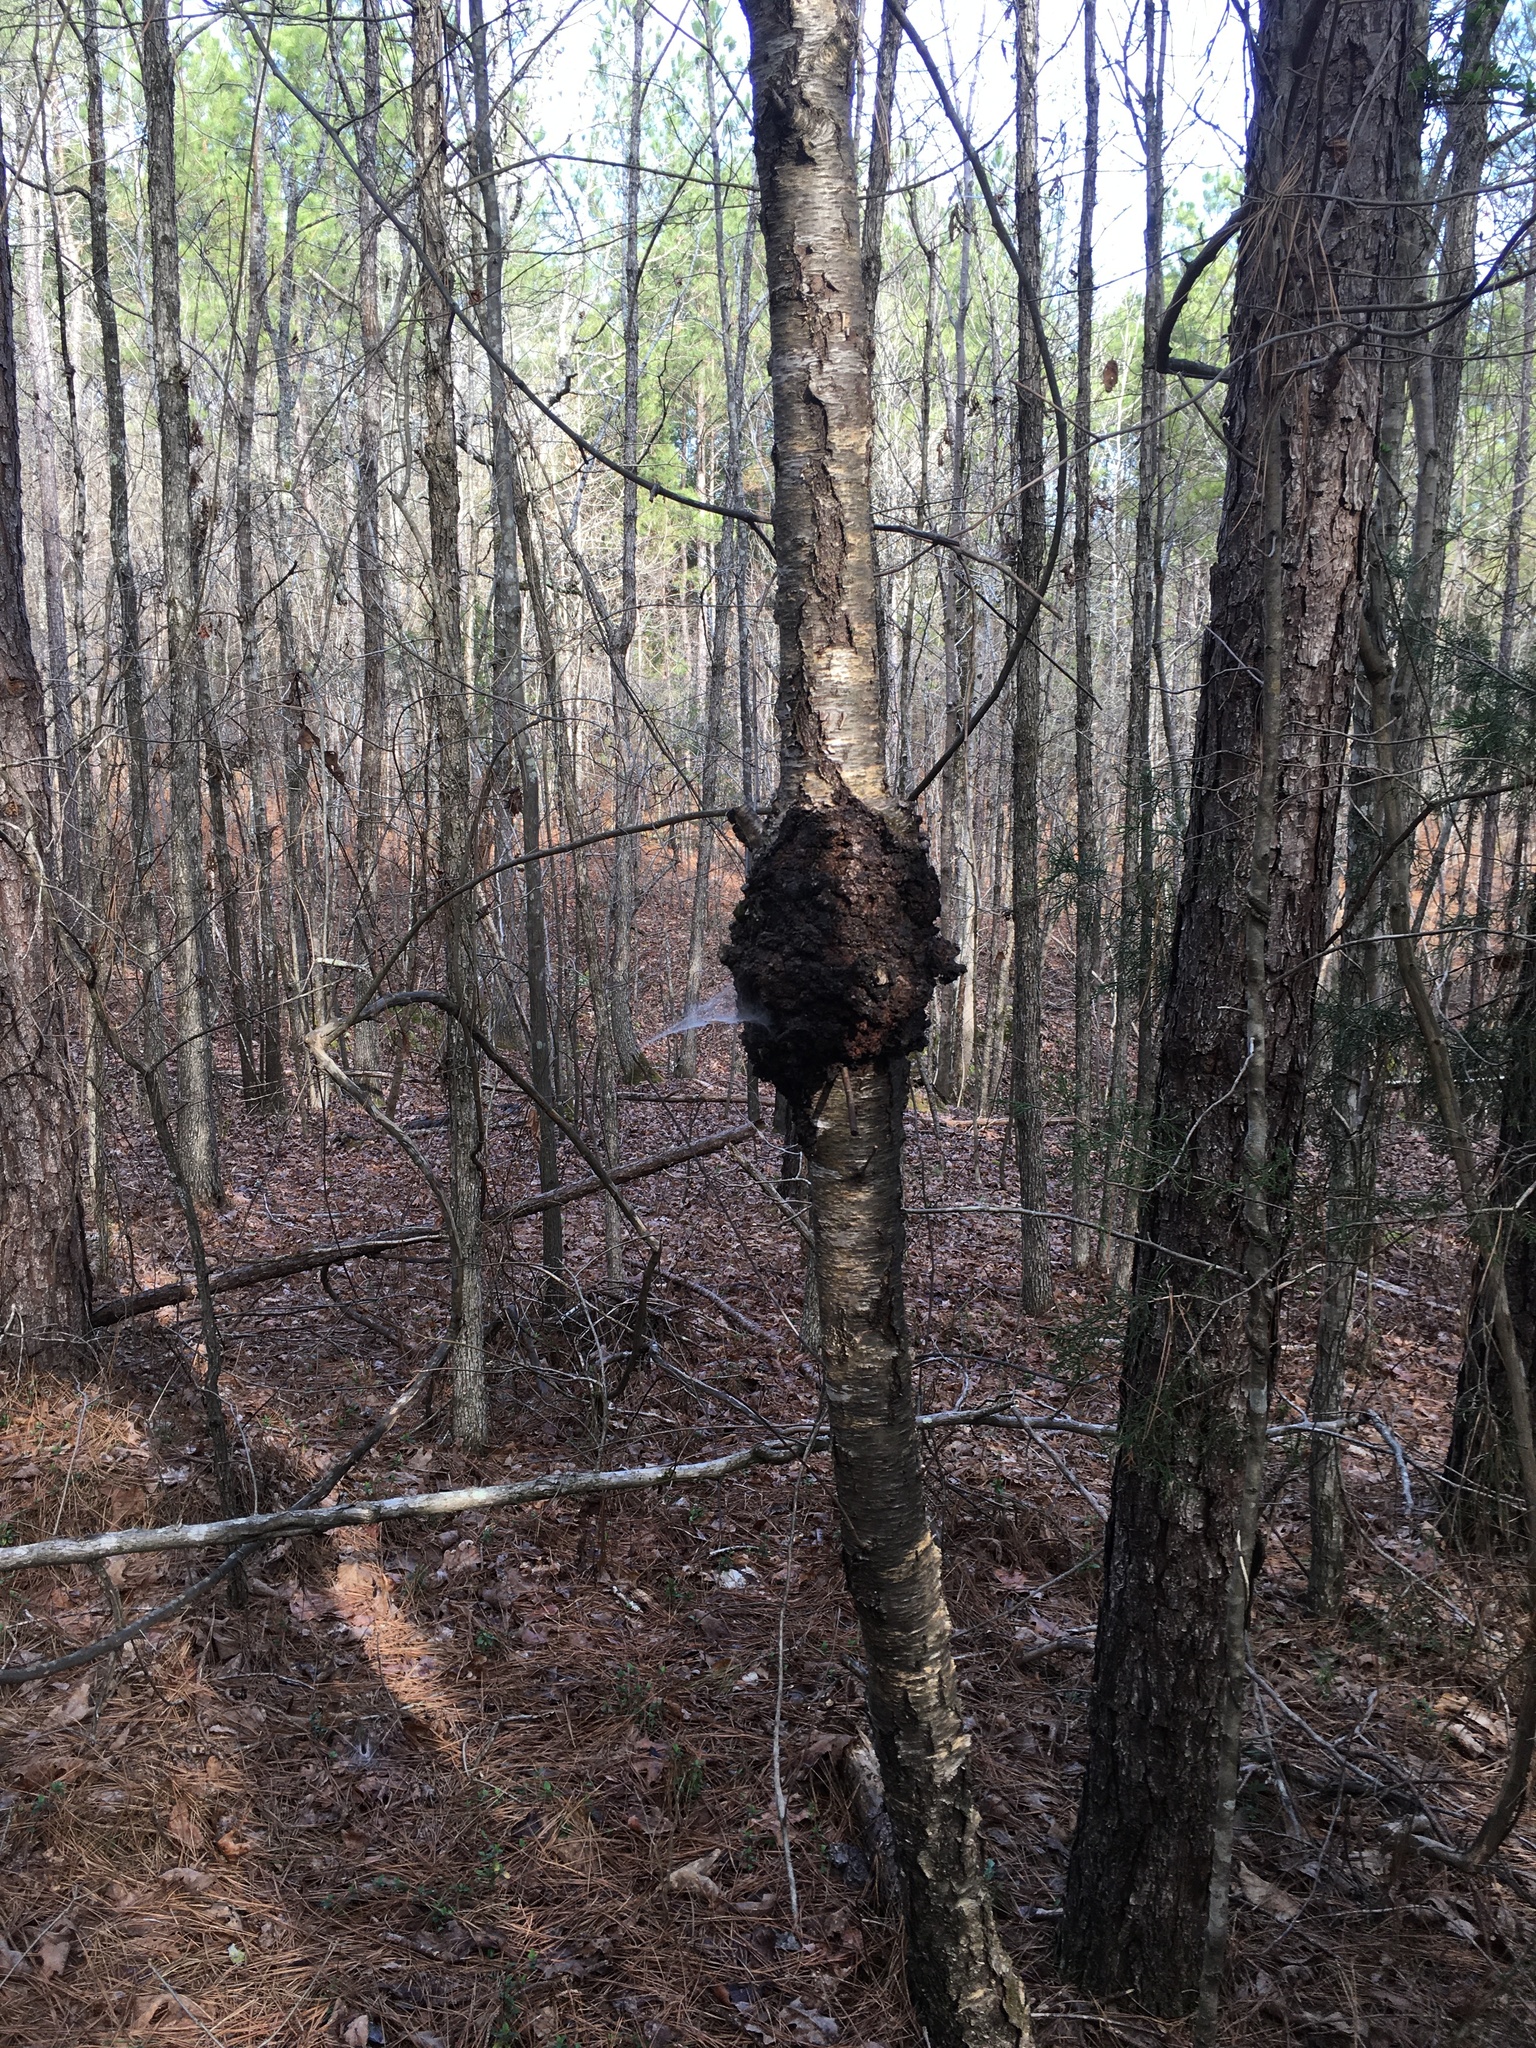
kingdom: Fungi
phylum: Ascomycota
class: Dothideomycetes
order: Venturiales
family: Venturiaceae
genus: Apiosporina
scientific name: Apiosporina morbosa
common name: Black knot
